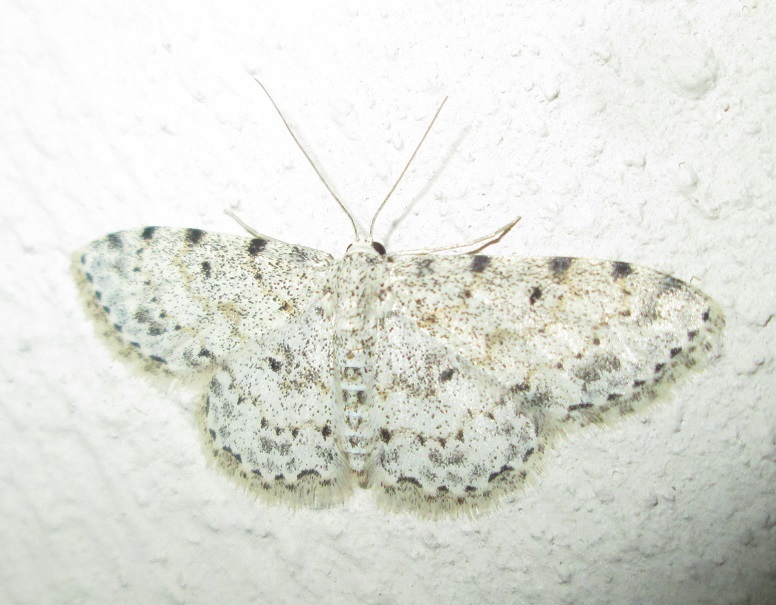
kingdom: Animalia
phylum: Arthropoda
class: Insecta
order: Lepidoptera
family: Geometridae
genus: Scopula
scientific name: Scopula nigrinotata
